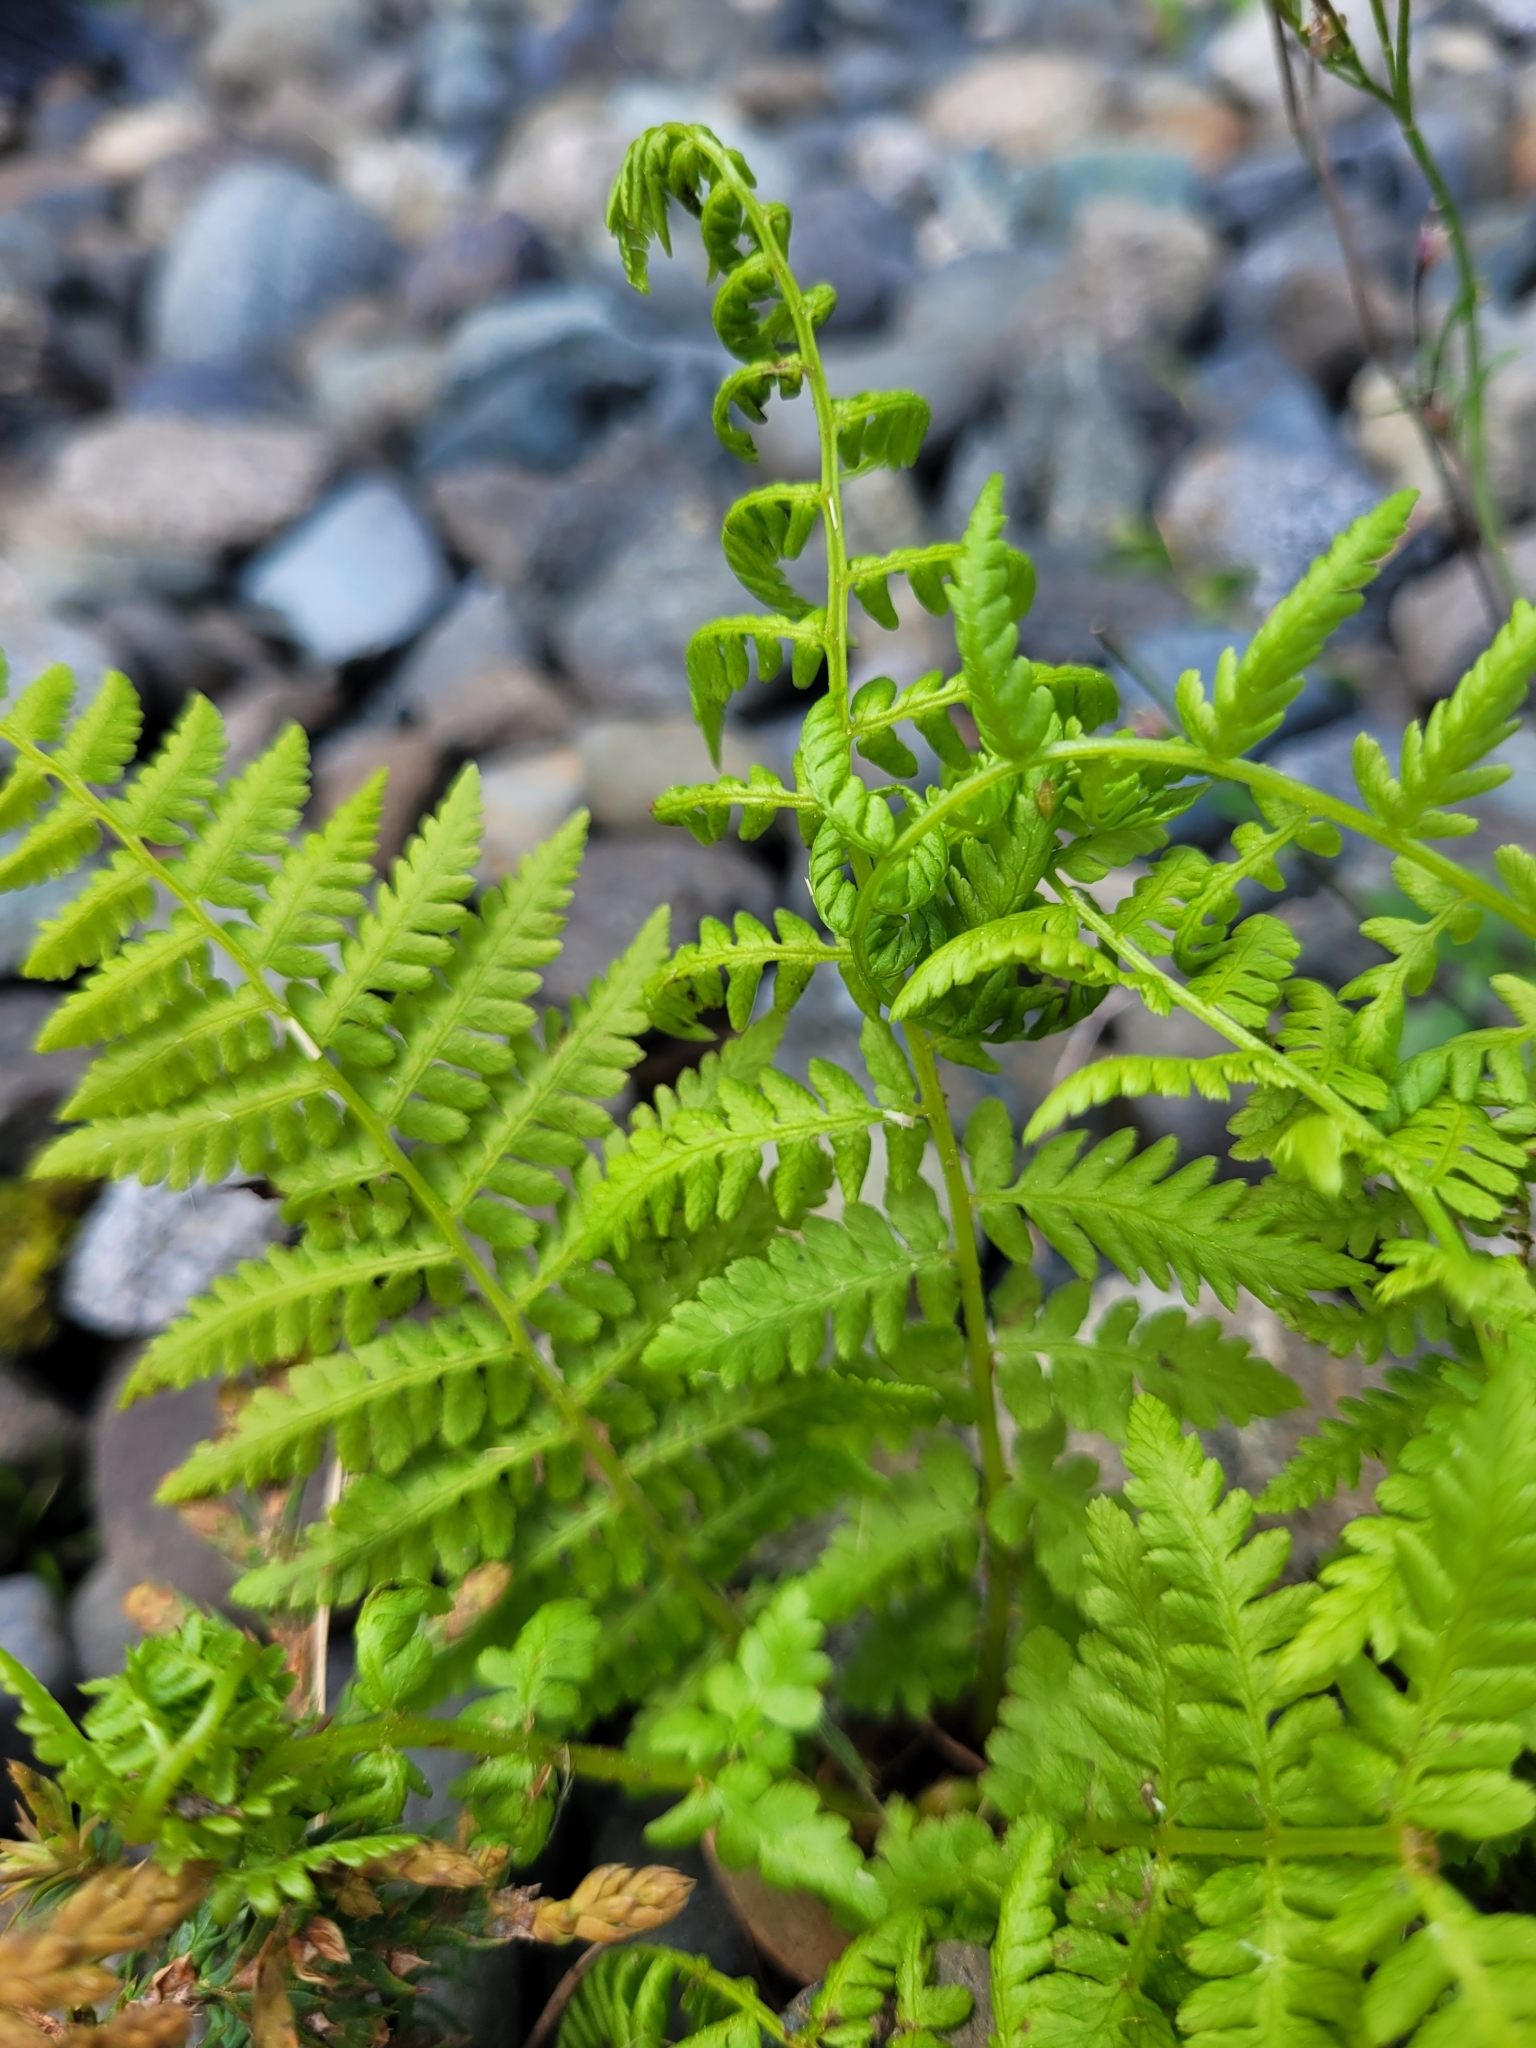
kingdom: Plantae
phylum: Tracheophyta
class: Polypodiopsida
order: Polypodiales
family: Athyriaceae
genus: Athyrium
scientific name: Athyrium filix-femina
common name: Lady fern
